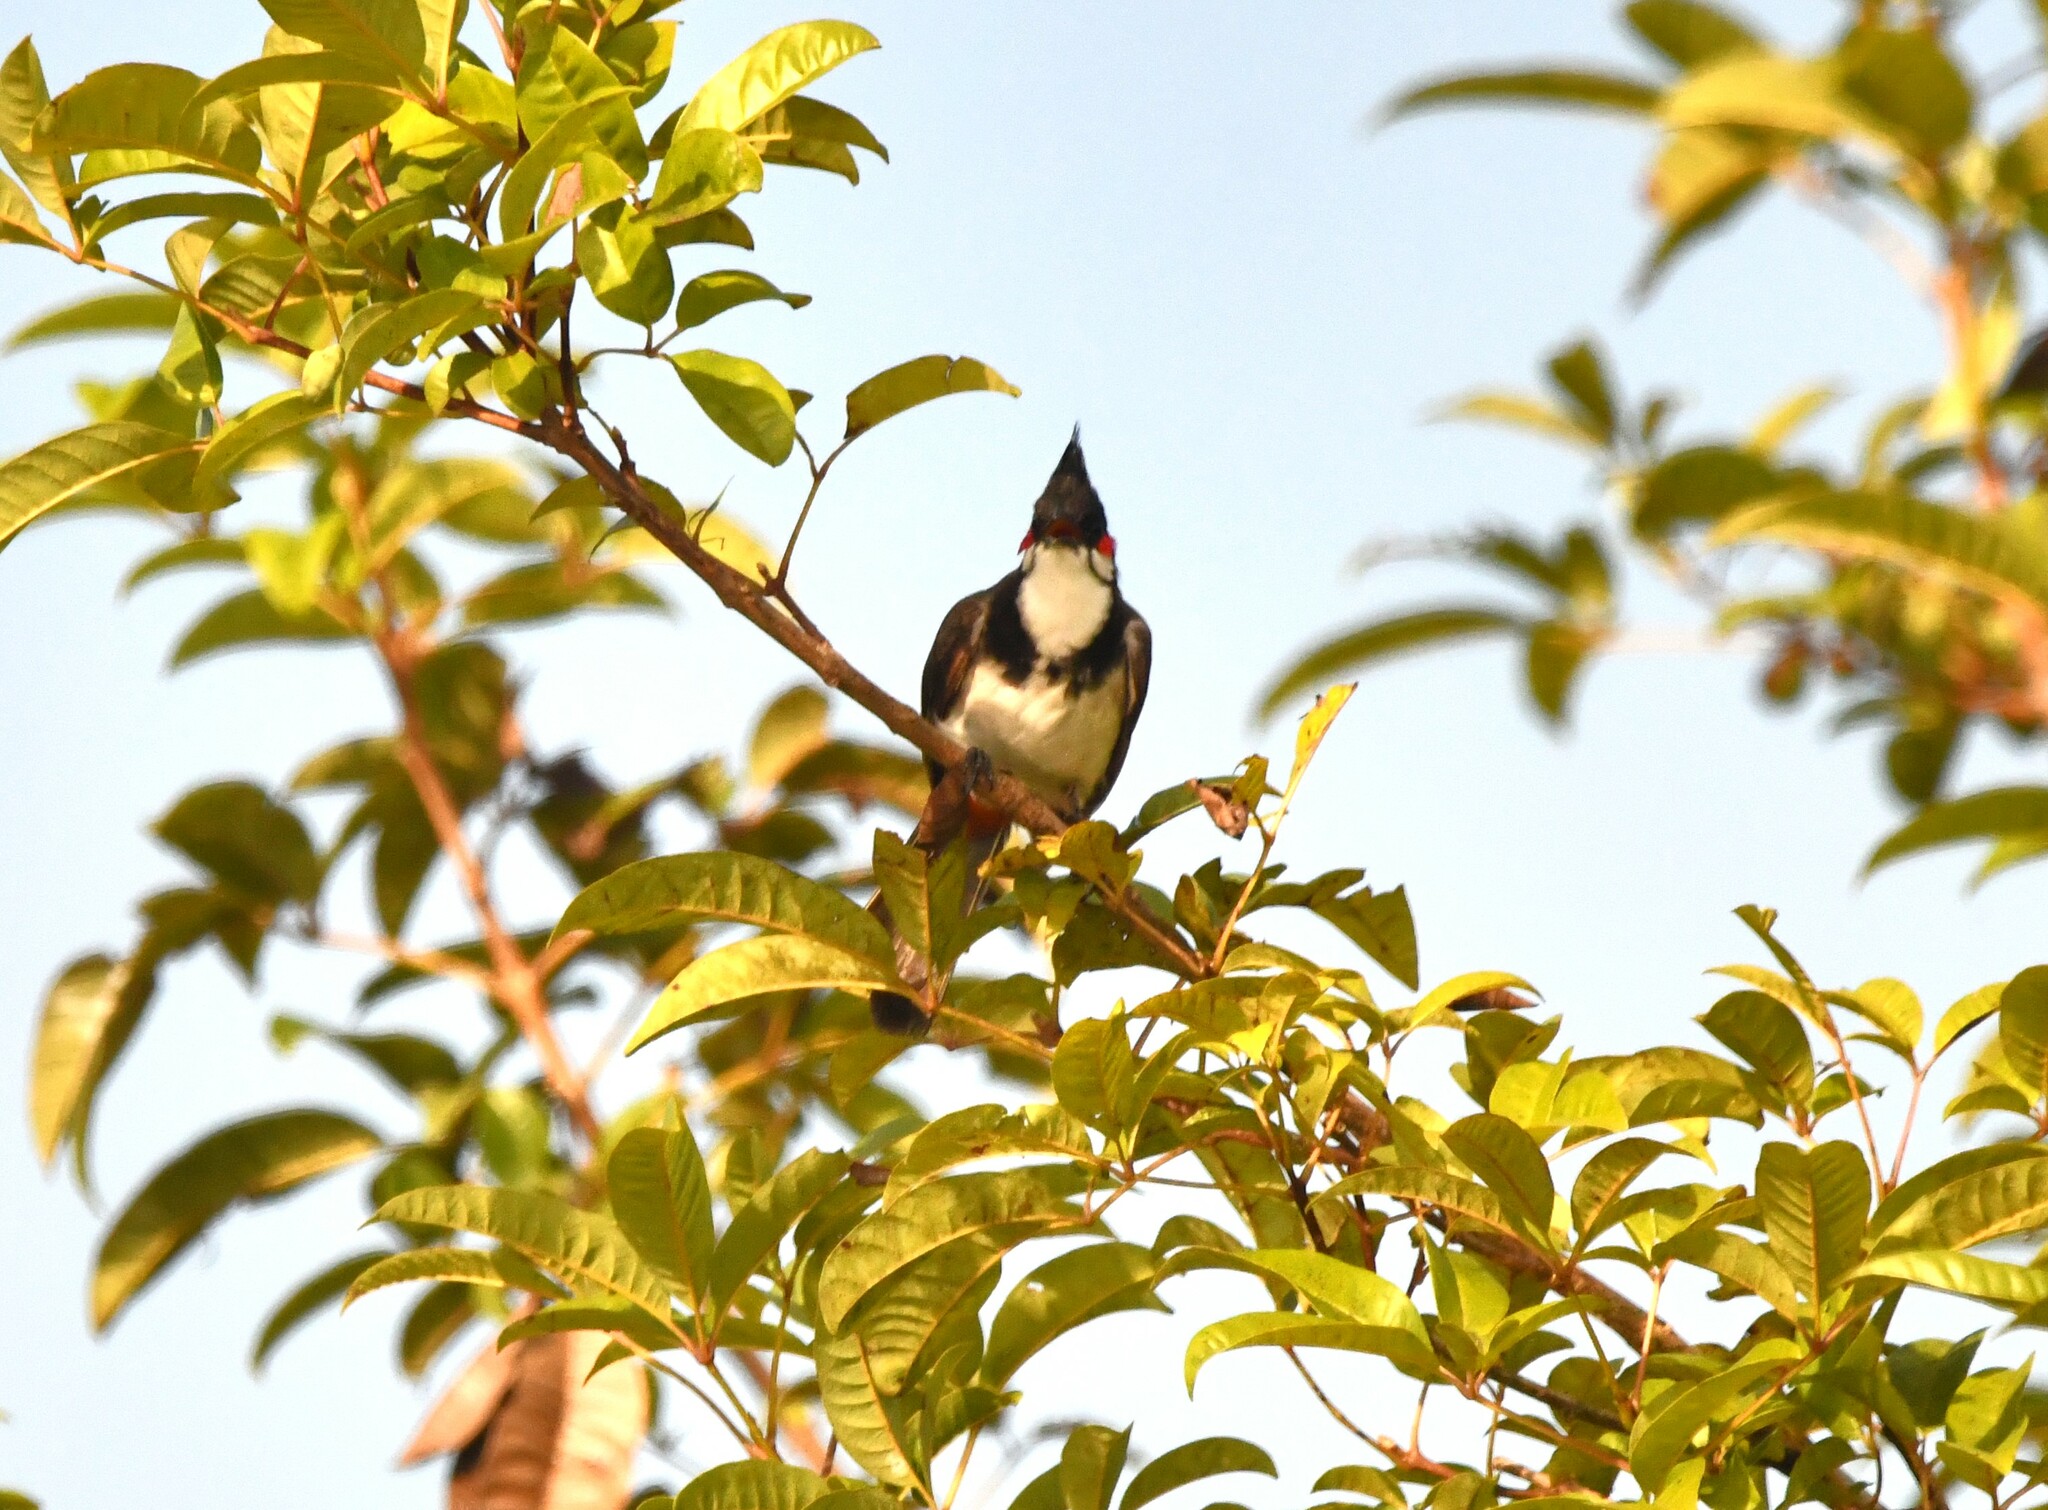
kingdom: Animalia
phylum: Chordata
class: Aves
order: Passeriformes
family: Pycnonotidae
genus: Pycnonotus
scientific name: Pycnonotus jocosus
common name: Red-whiskered bulbul
